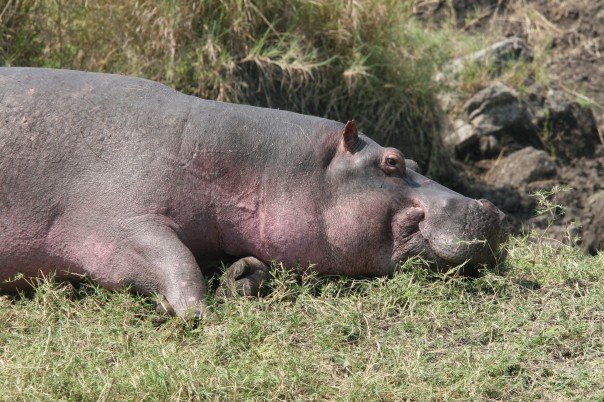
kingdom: Animalia
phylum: Chordata
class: Mammalia
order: Artiodactyla
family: Hippopotamidae
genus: Hippopotamus
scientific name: Hippopotamus amphibius
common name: Common hippopotamus
